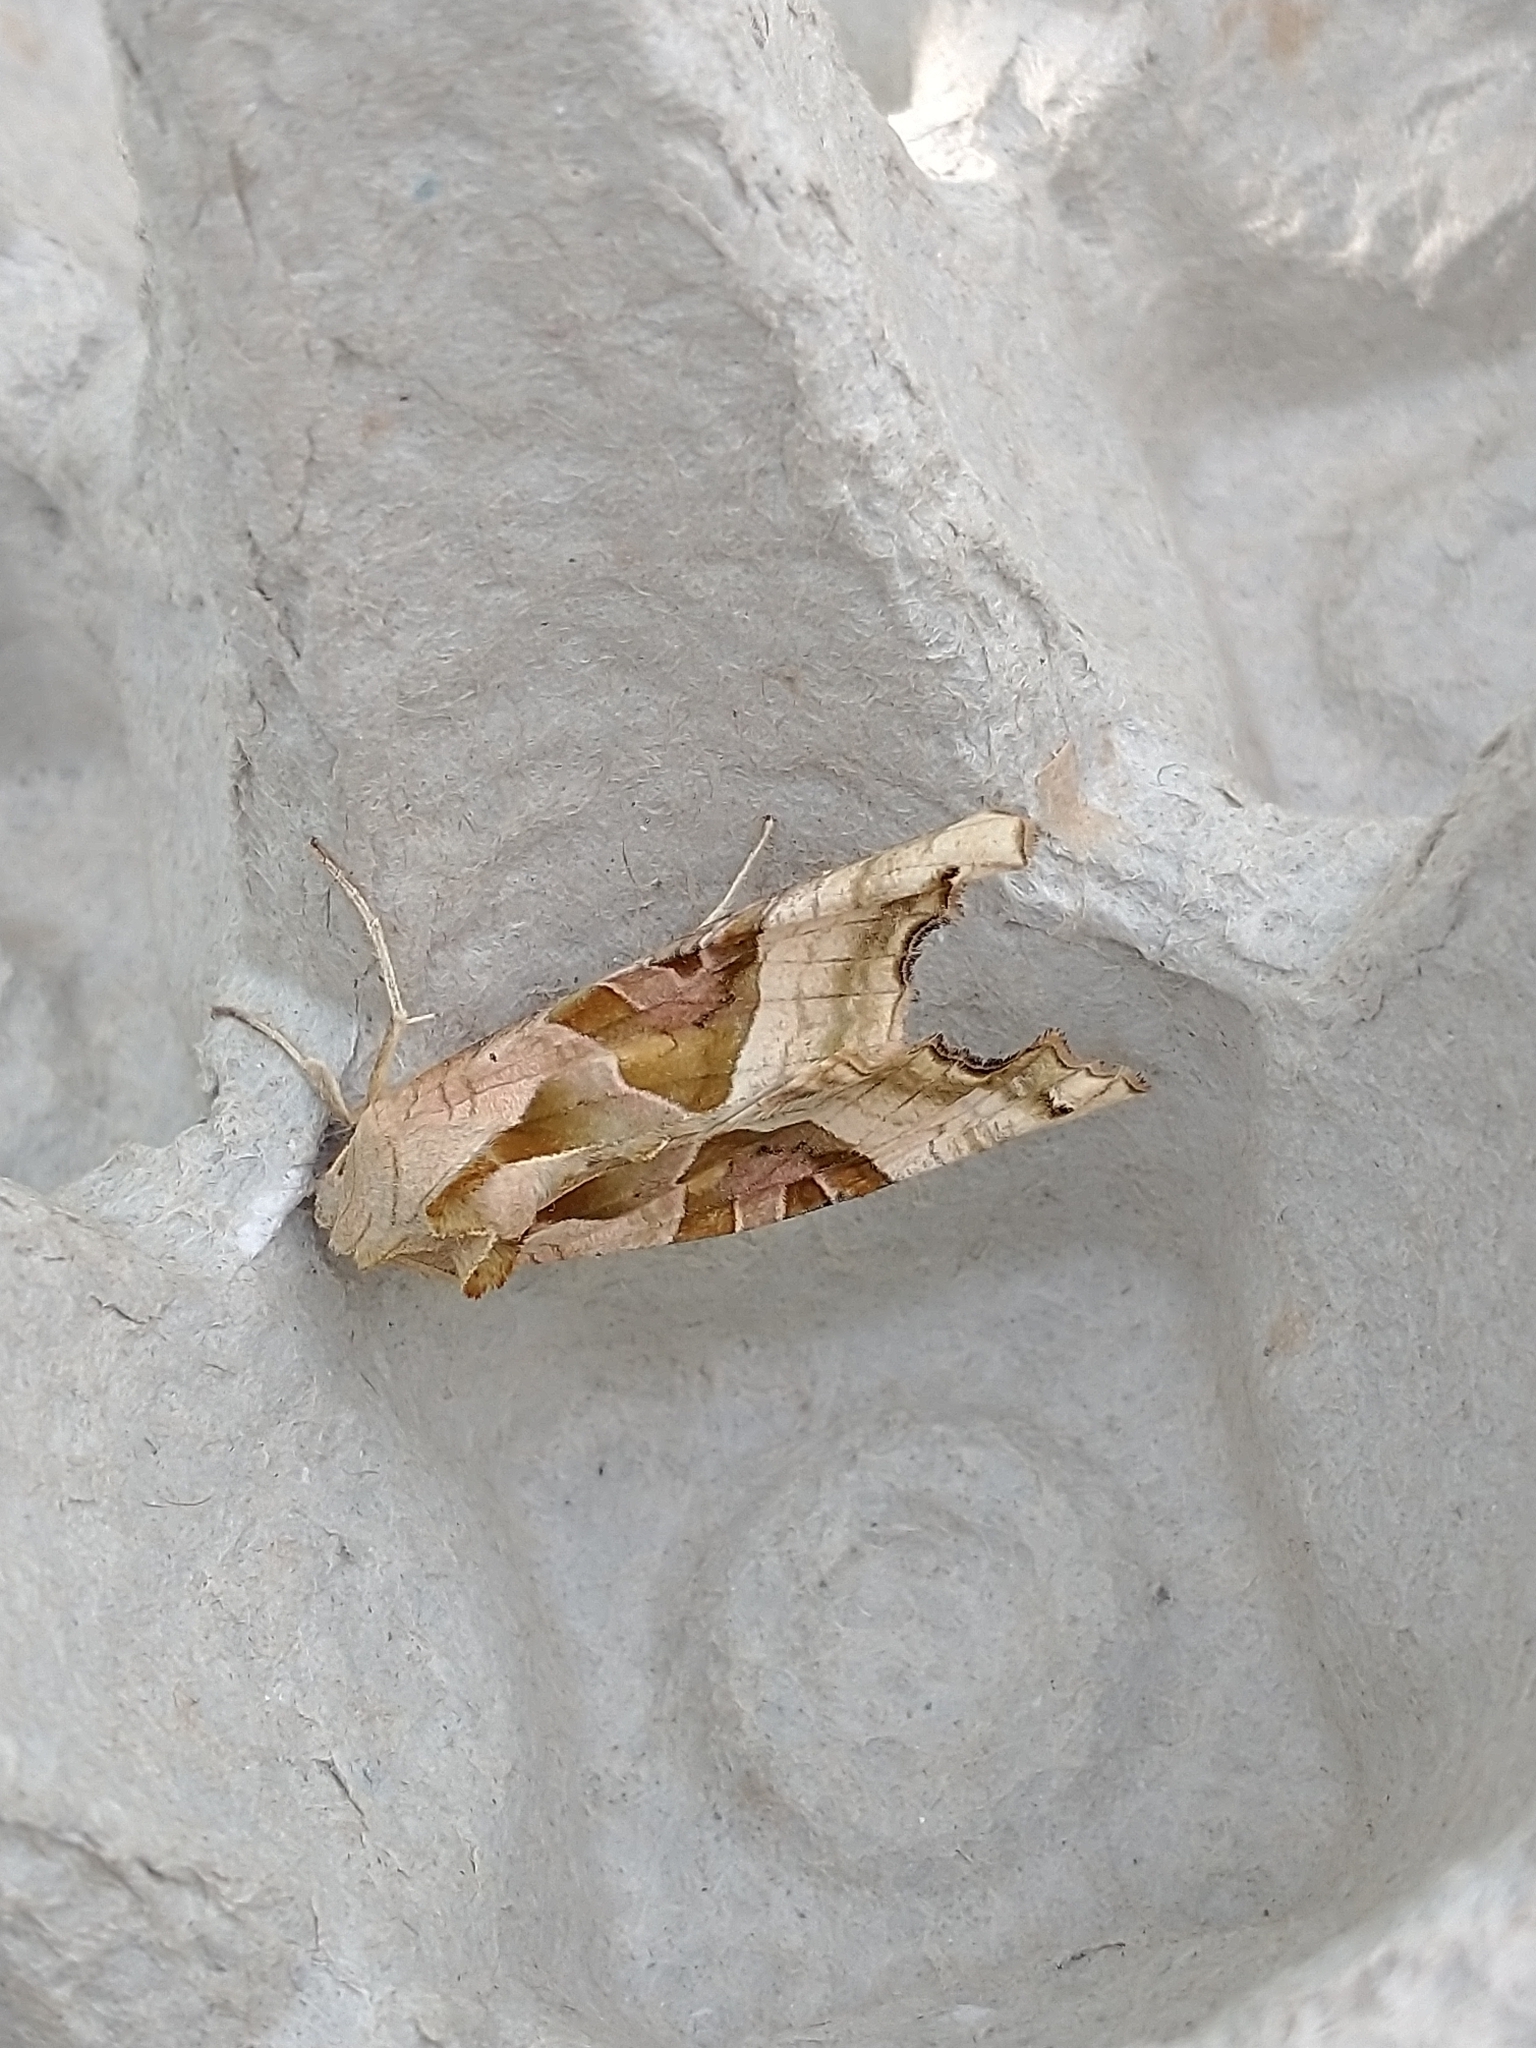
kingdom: Animalia
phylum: Arthropoda
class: Insecta
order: Lepidoptera
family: Noctuidae
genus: Phlogophora
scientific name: Phlogophora meticulosa
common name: Angle shades
